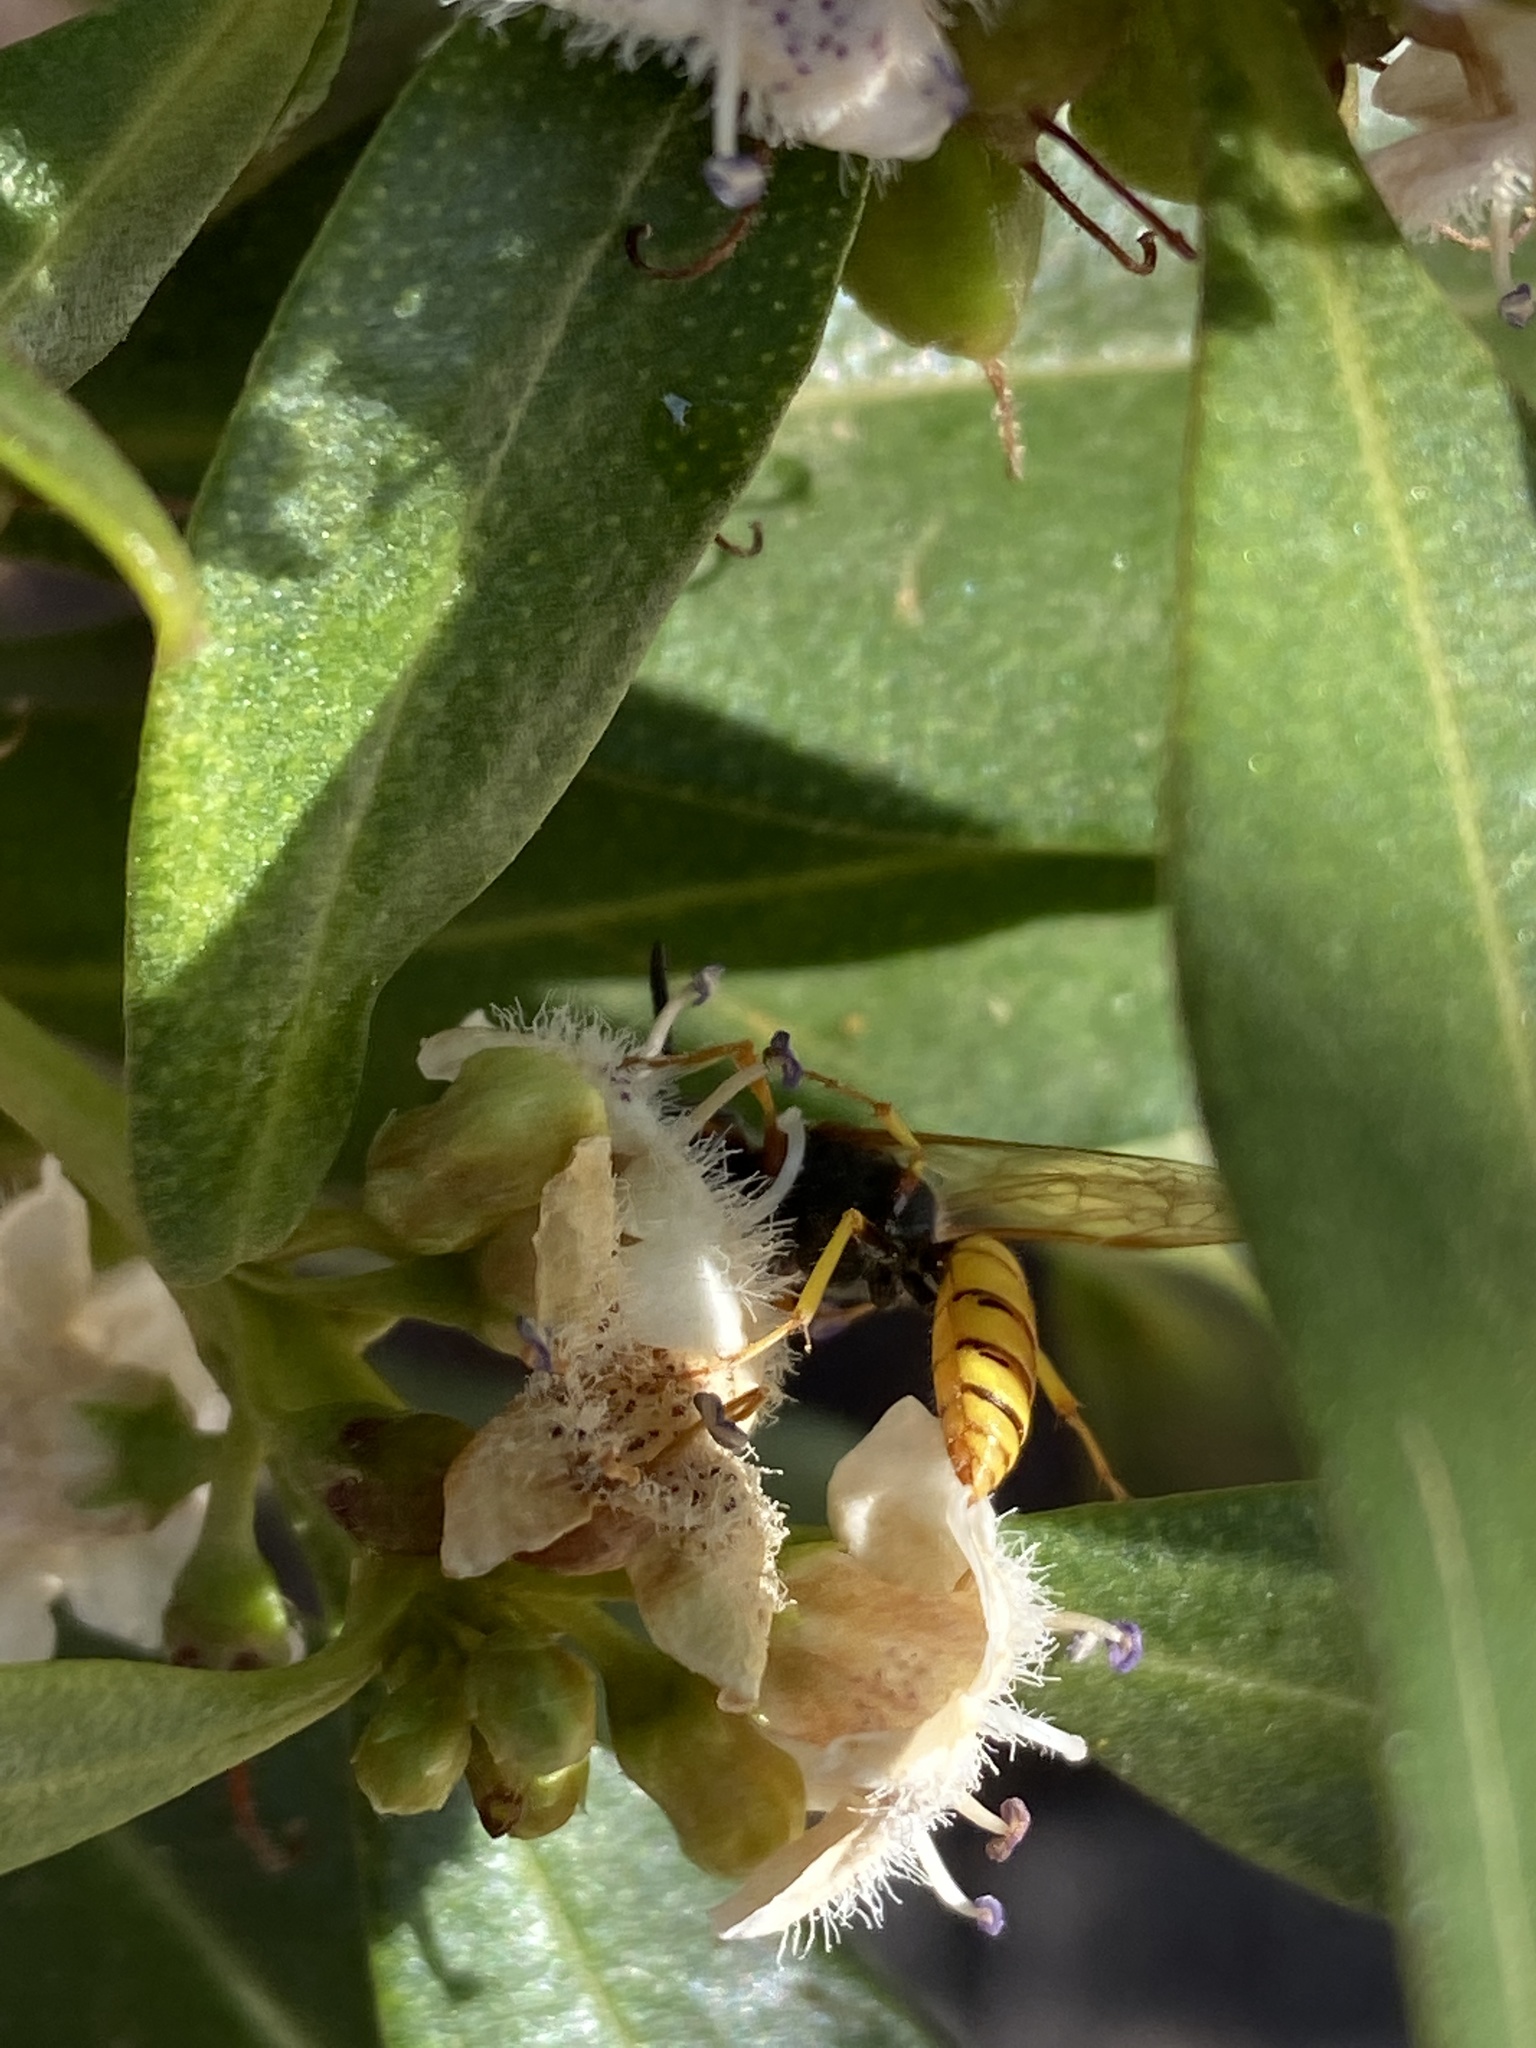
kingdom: Animalia
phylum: Arthropoda
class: Insecta
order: Hymenoptera
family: Crabronidae
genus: Philanthus
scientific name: Philanthus triangulum
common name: Bee wolf
